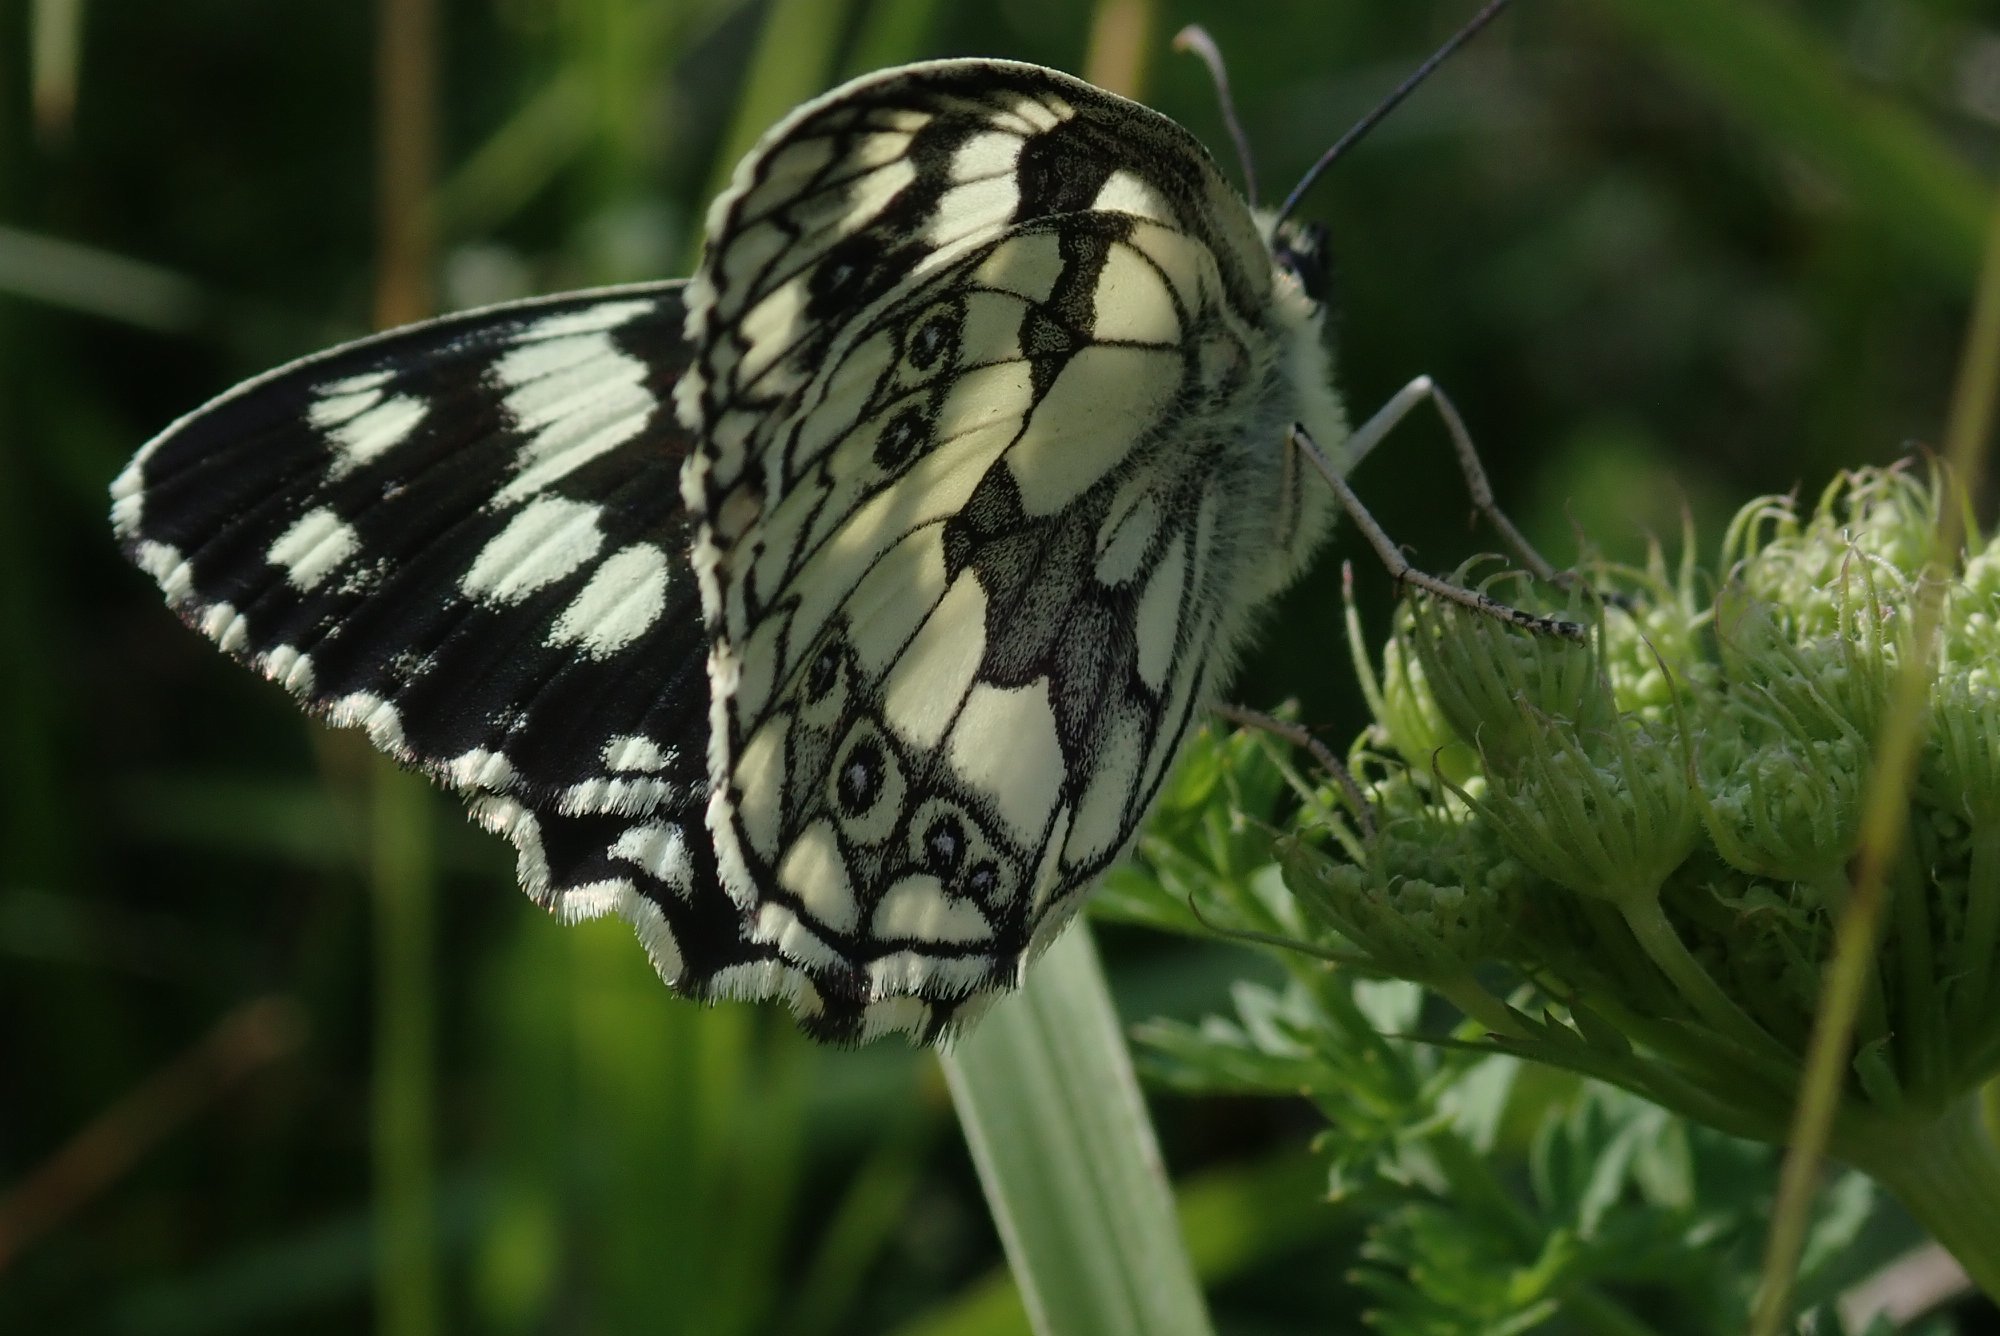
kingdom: Animalia
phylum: Arthropoda
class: Insecta
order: Lepidoptera
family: Nymphalidae
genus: Melanargia
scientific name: Melanargia galathea
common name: Marbled white
